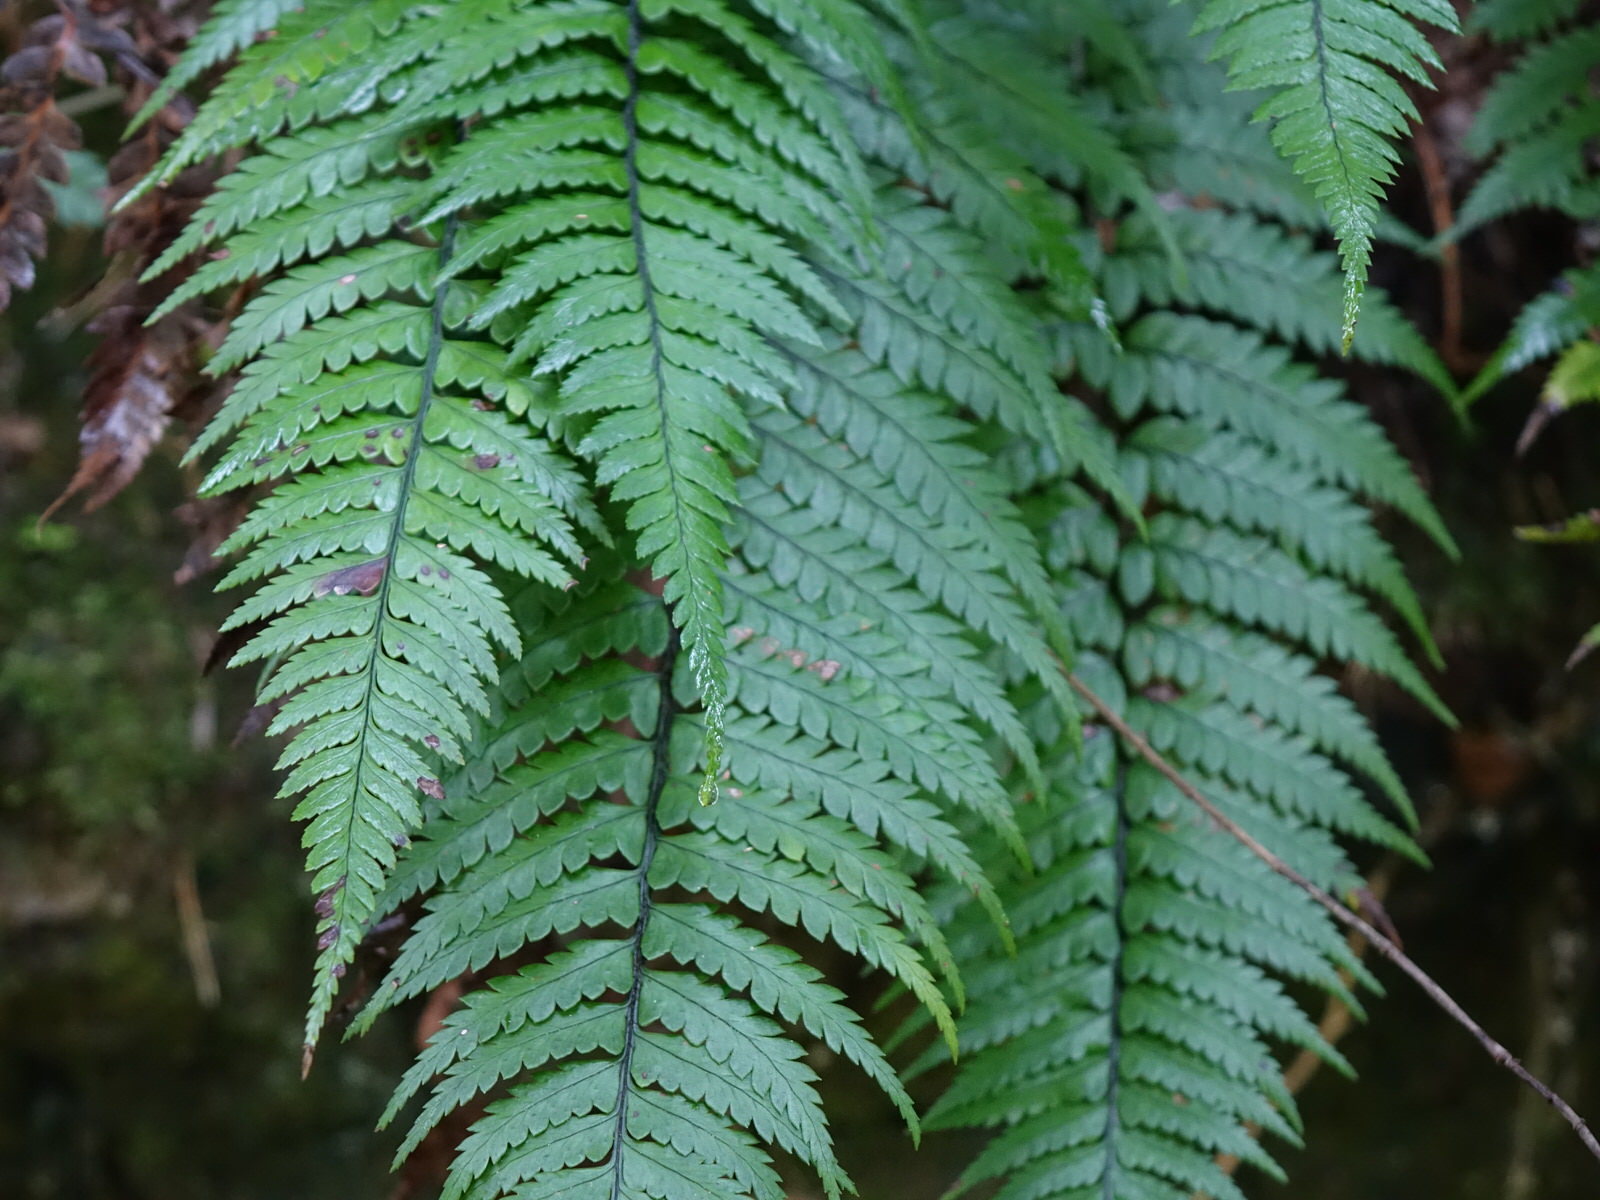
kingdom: Plantae
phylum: Tracheophyta
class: Polypodiopsida
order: Polypodiales
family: Dryopteridaceae
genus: Polystichum
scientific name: Polystichum wawranum
